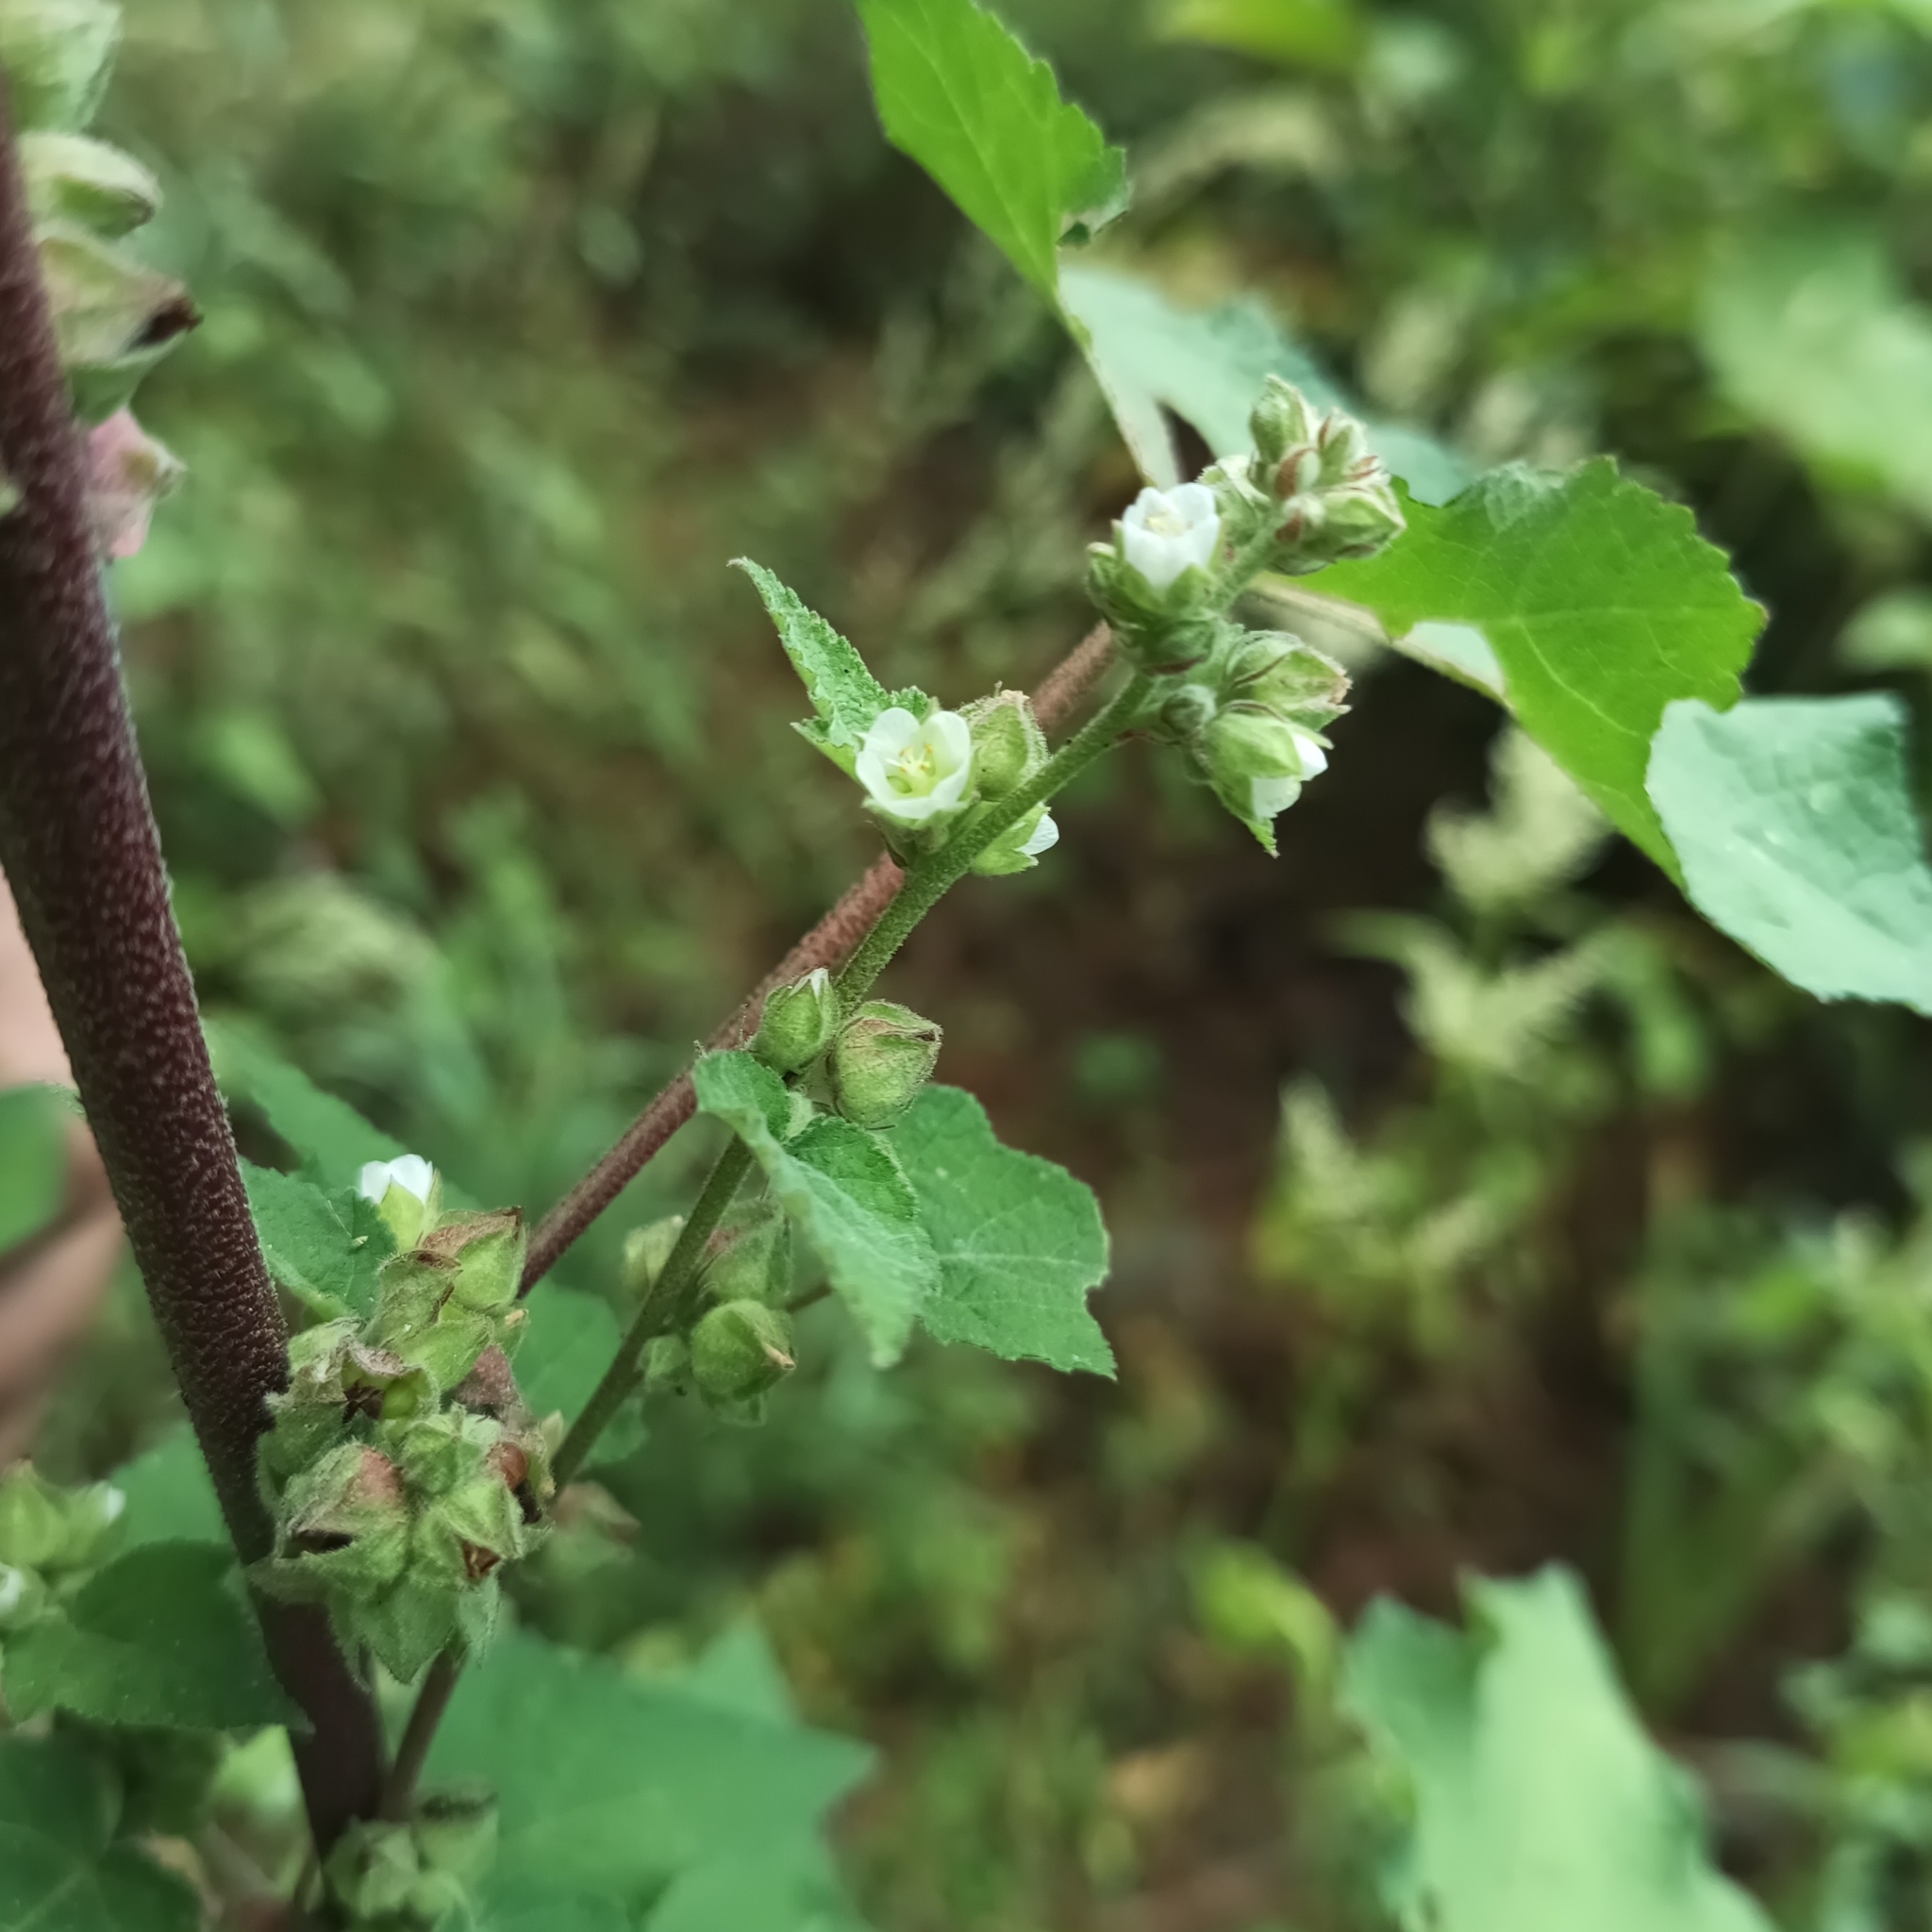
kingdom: Plantae
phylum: Tracheophyta
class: Magnoliopsida
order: Malvales
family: Malvaceae
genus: Kearnemalvastrum
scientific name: Kearnemalvastrum subtriflorum
